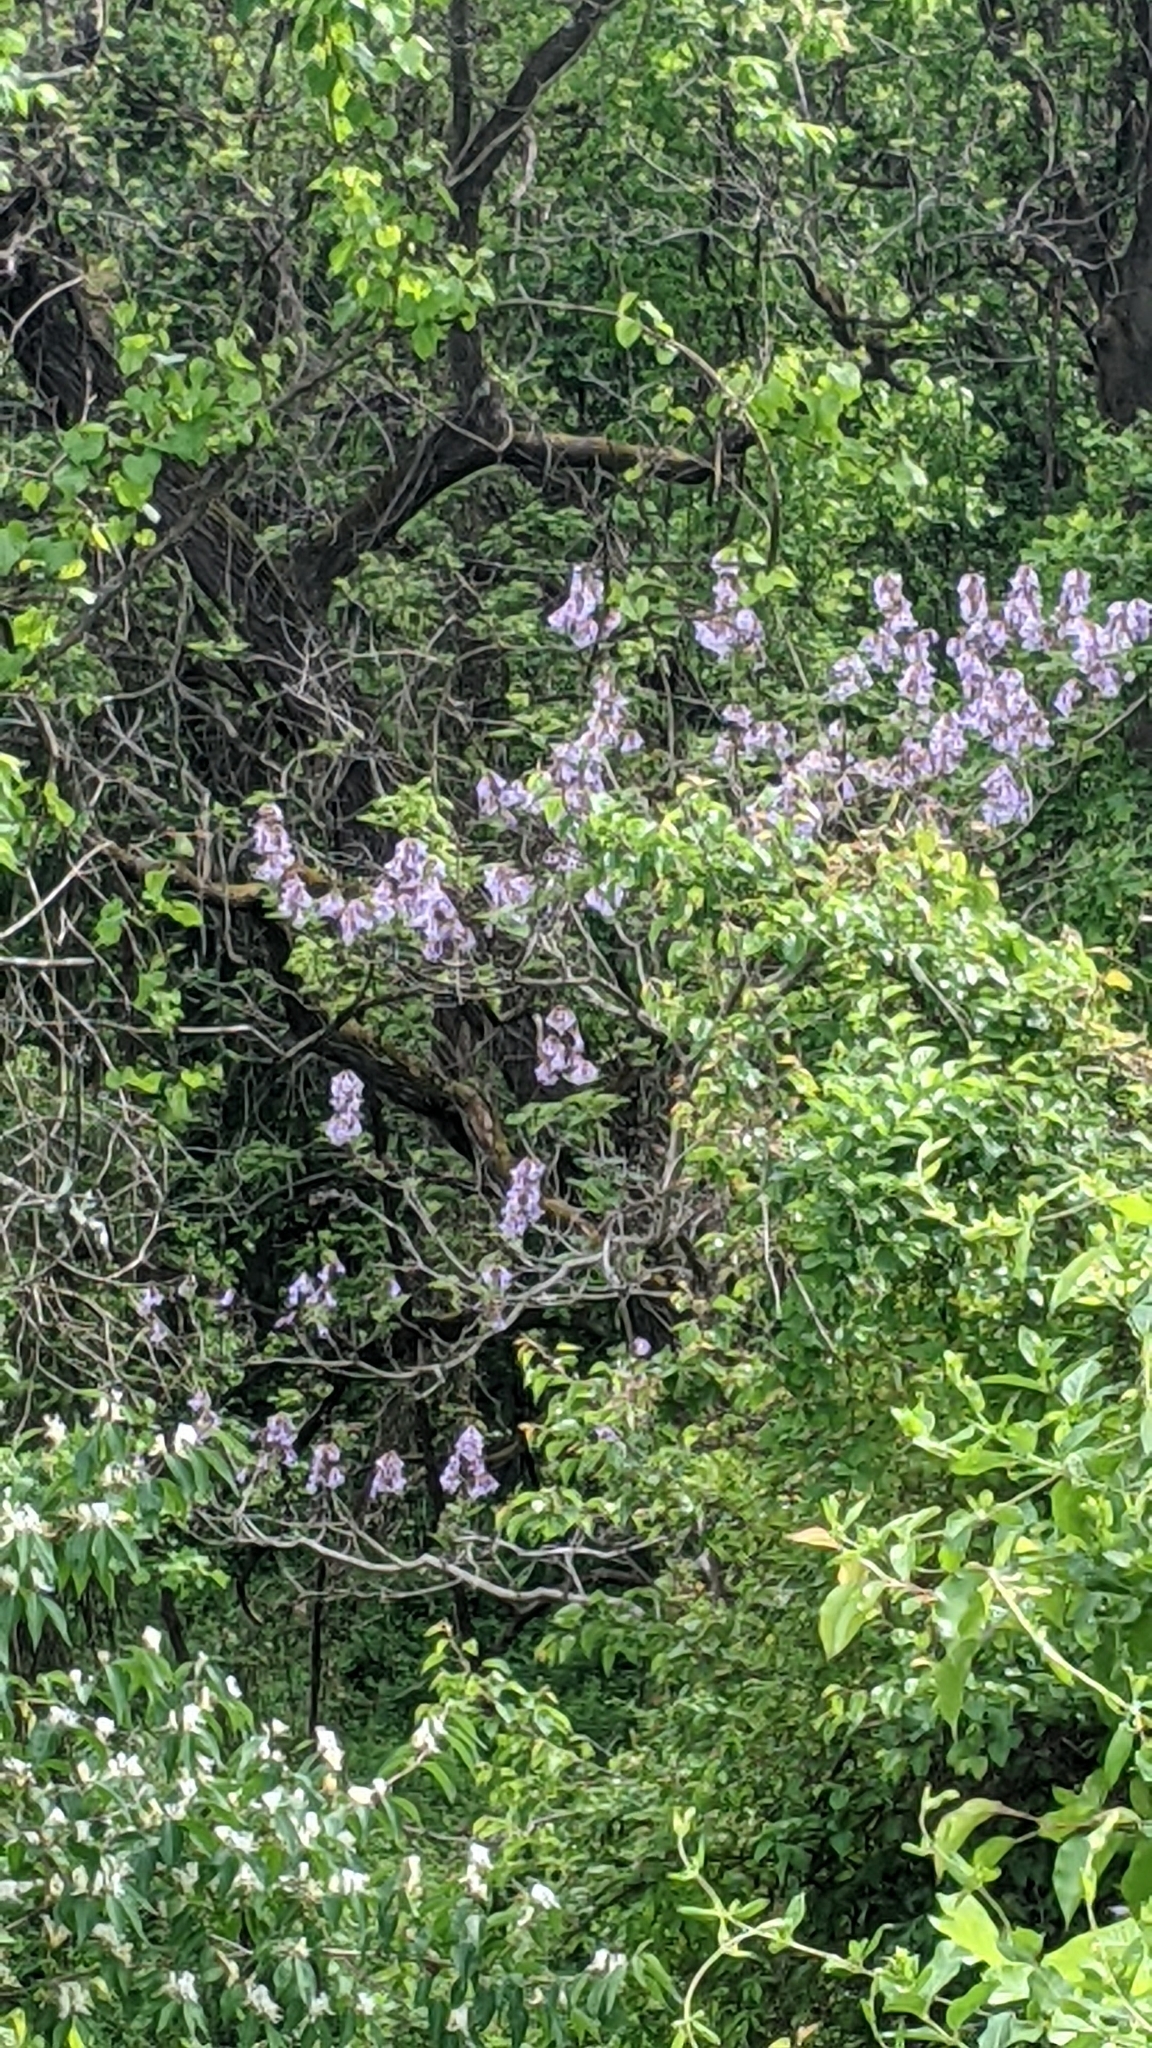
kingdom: Plantae
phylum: Tracheophyta
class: Magnoliopsida
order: Lamiales
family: Paulowniaceae
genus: Paulownia
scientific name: Paulownia tomentosa
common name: Foxglove-tree
